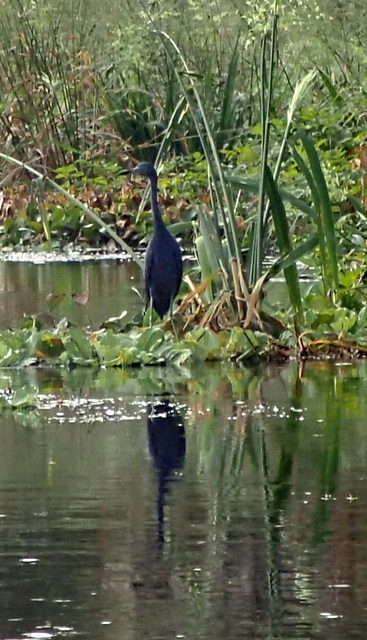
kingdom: Animalia
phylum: Chordata
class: Aves
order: Pelecaniformes
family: Ardeidae
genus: Egretta
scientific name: Egretta caerulea
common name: Little blue heron
